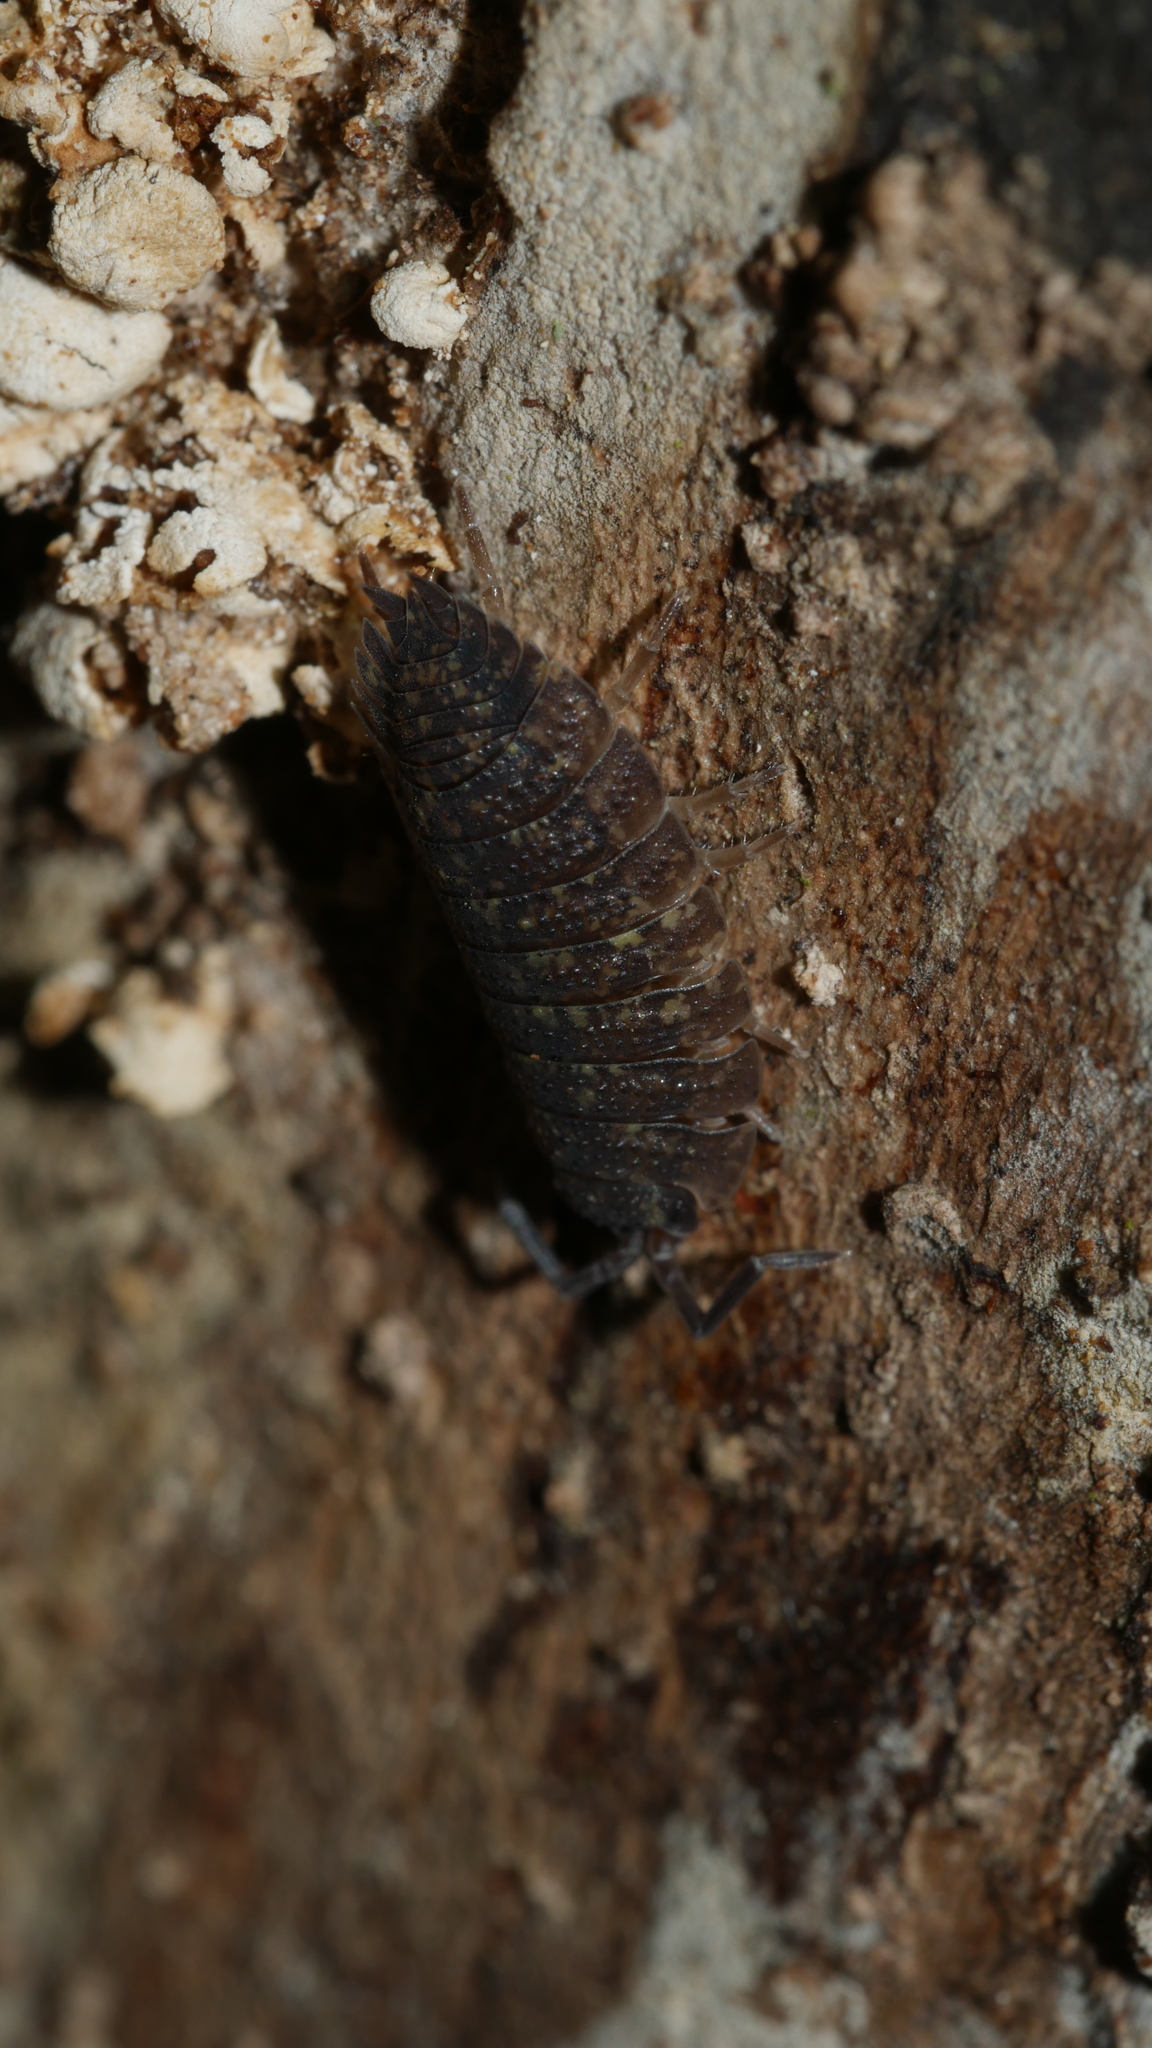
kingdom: Animalia
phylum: Arthropoda
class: Malacostraca
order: Isopoda
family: Porcellionidae
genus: Porcellio
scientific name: Porcellio scaber
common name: Common rough woodlouse
